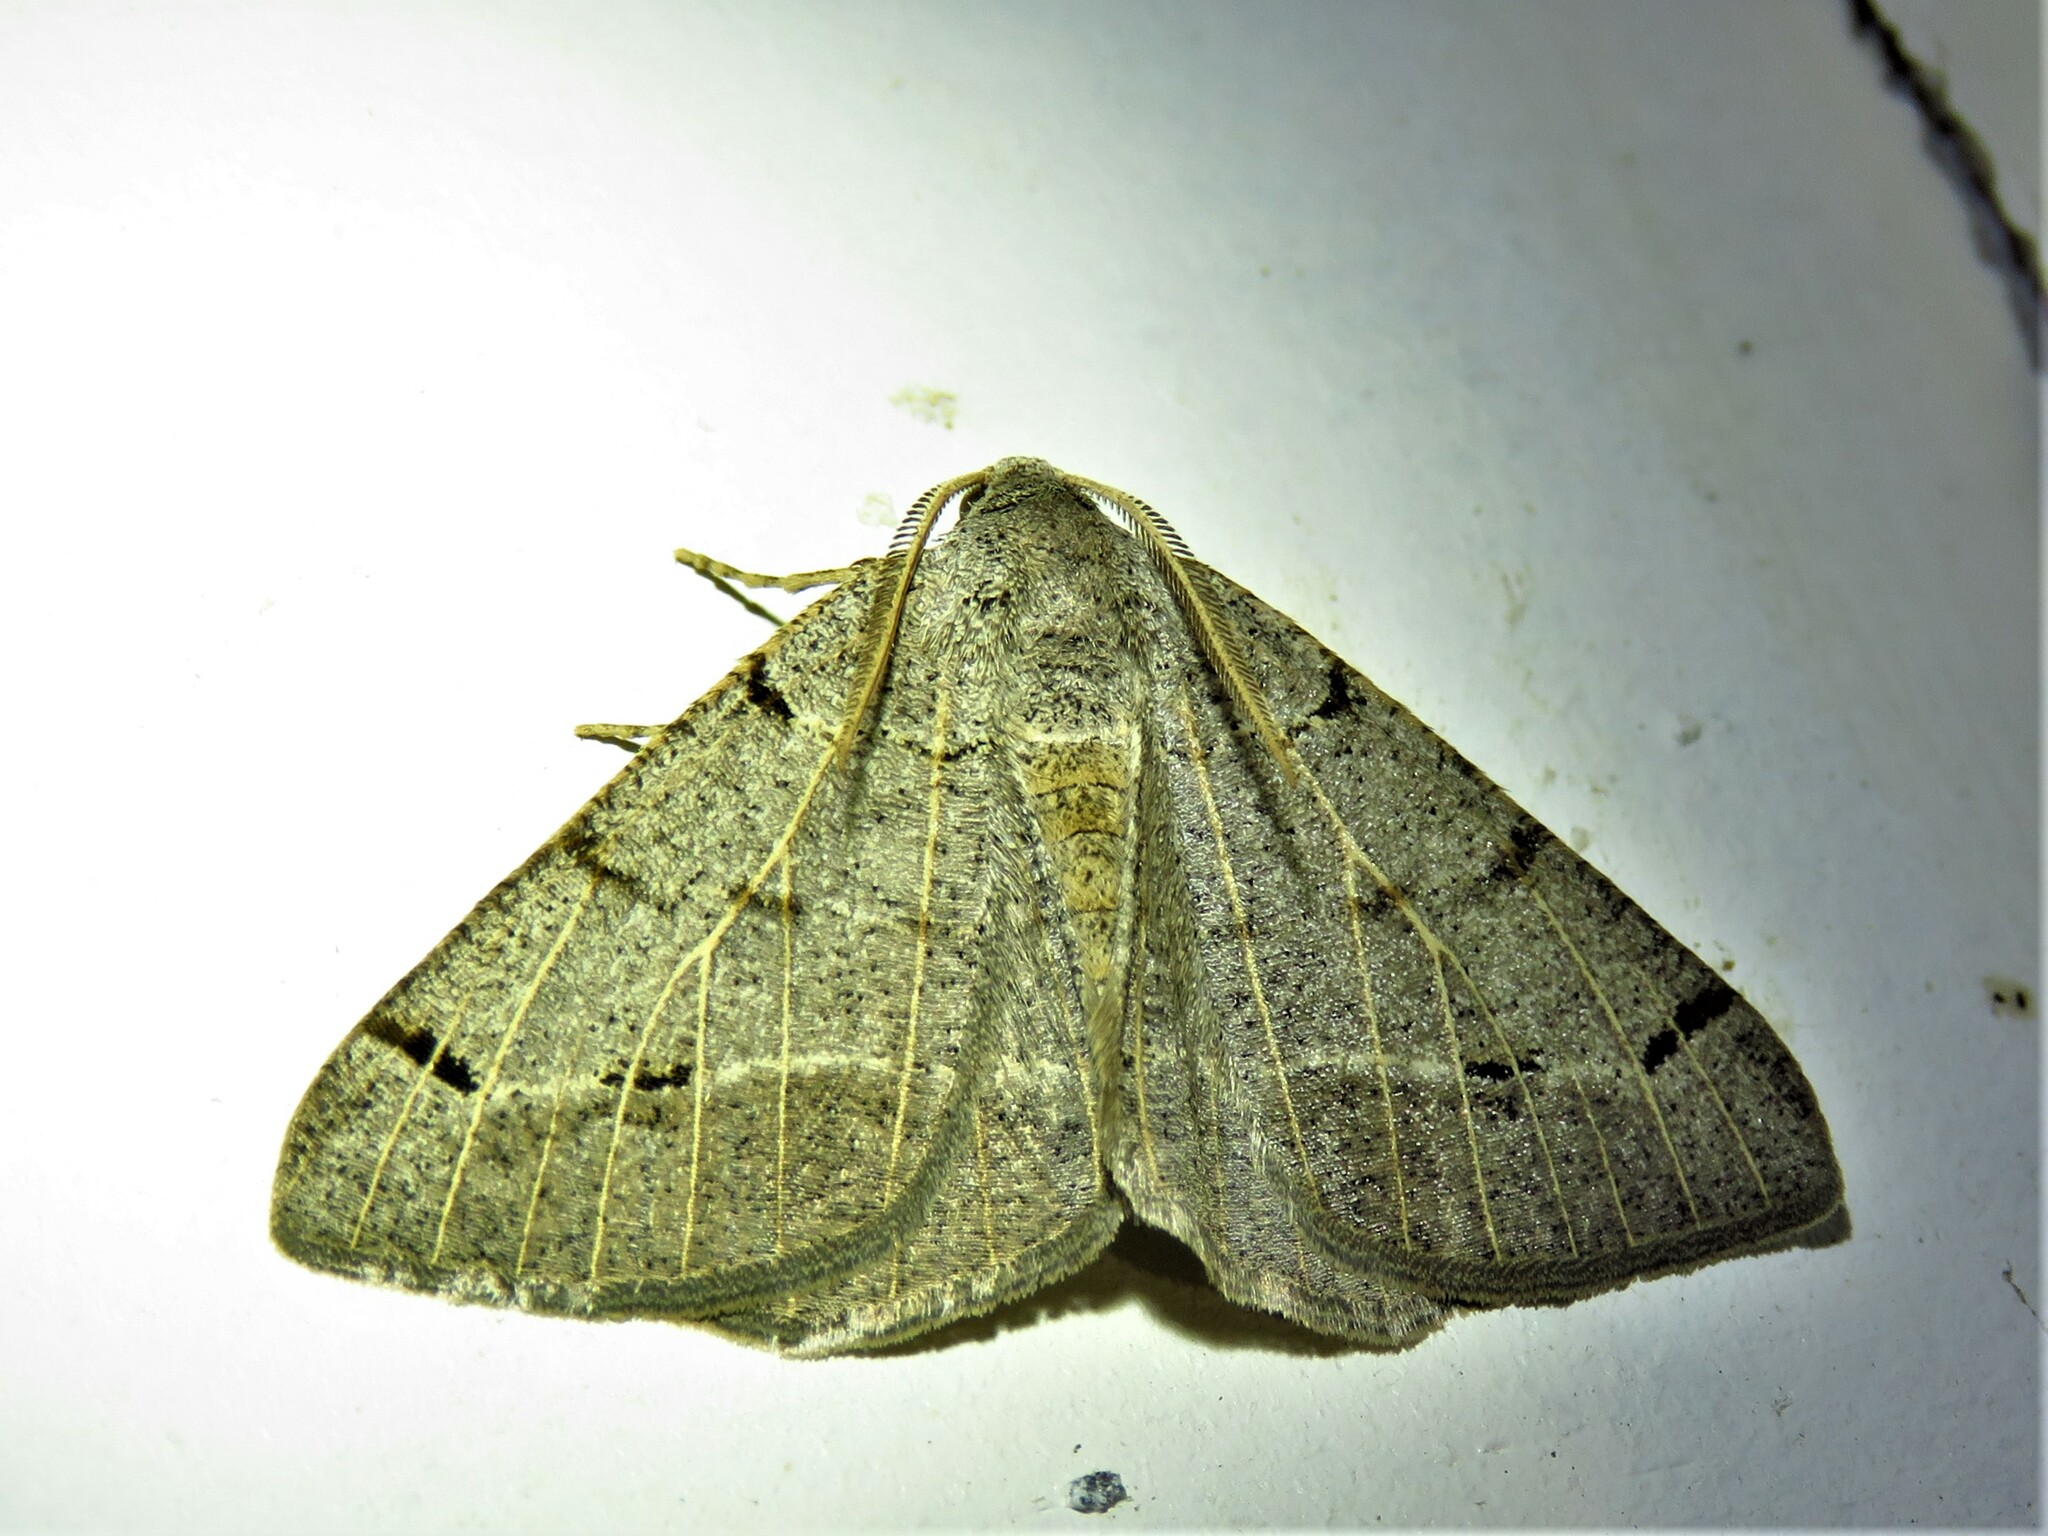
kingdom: Animalia
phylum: Arthropoda
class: Insecta
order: Lepidoptera
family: Geometridae
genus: Isturgia
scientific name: Isturgia dislocaria
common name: Pale-viened enconista
